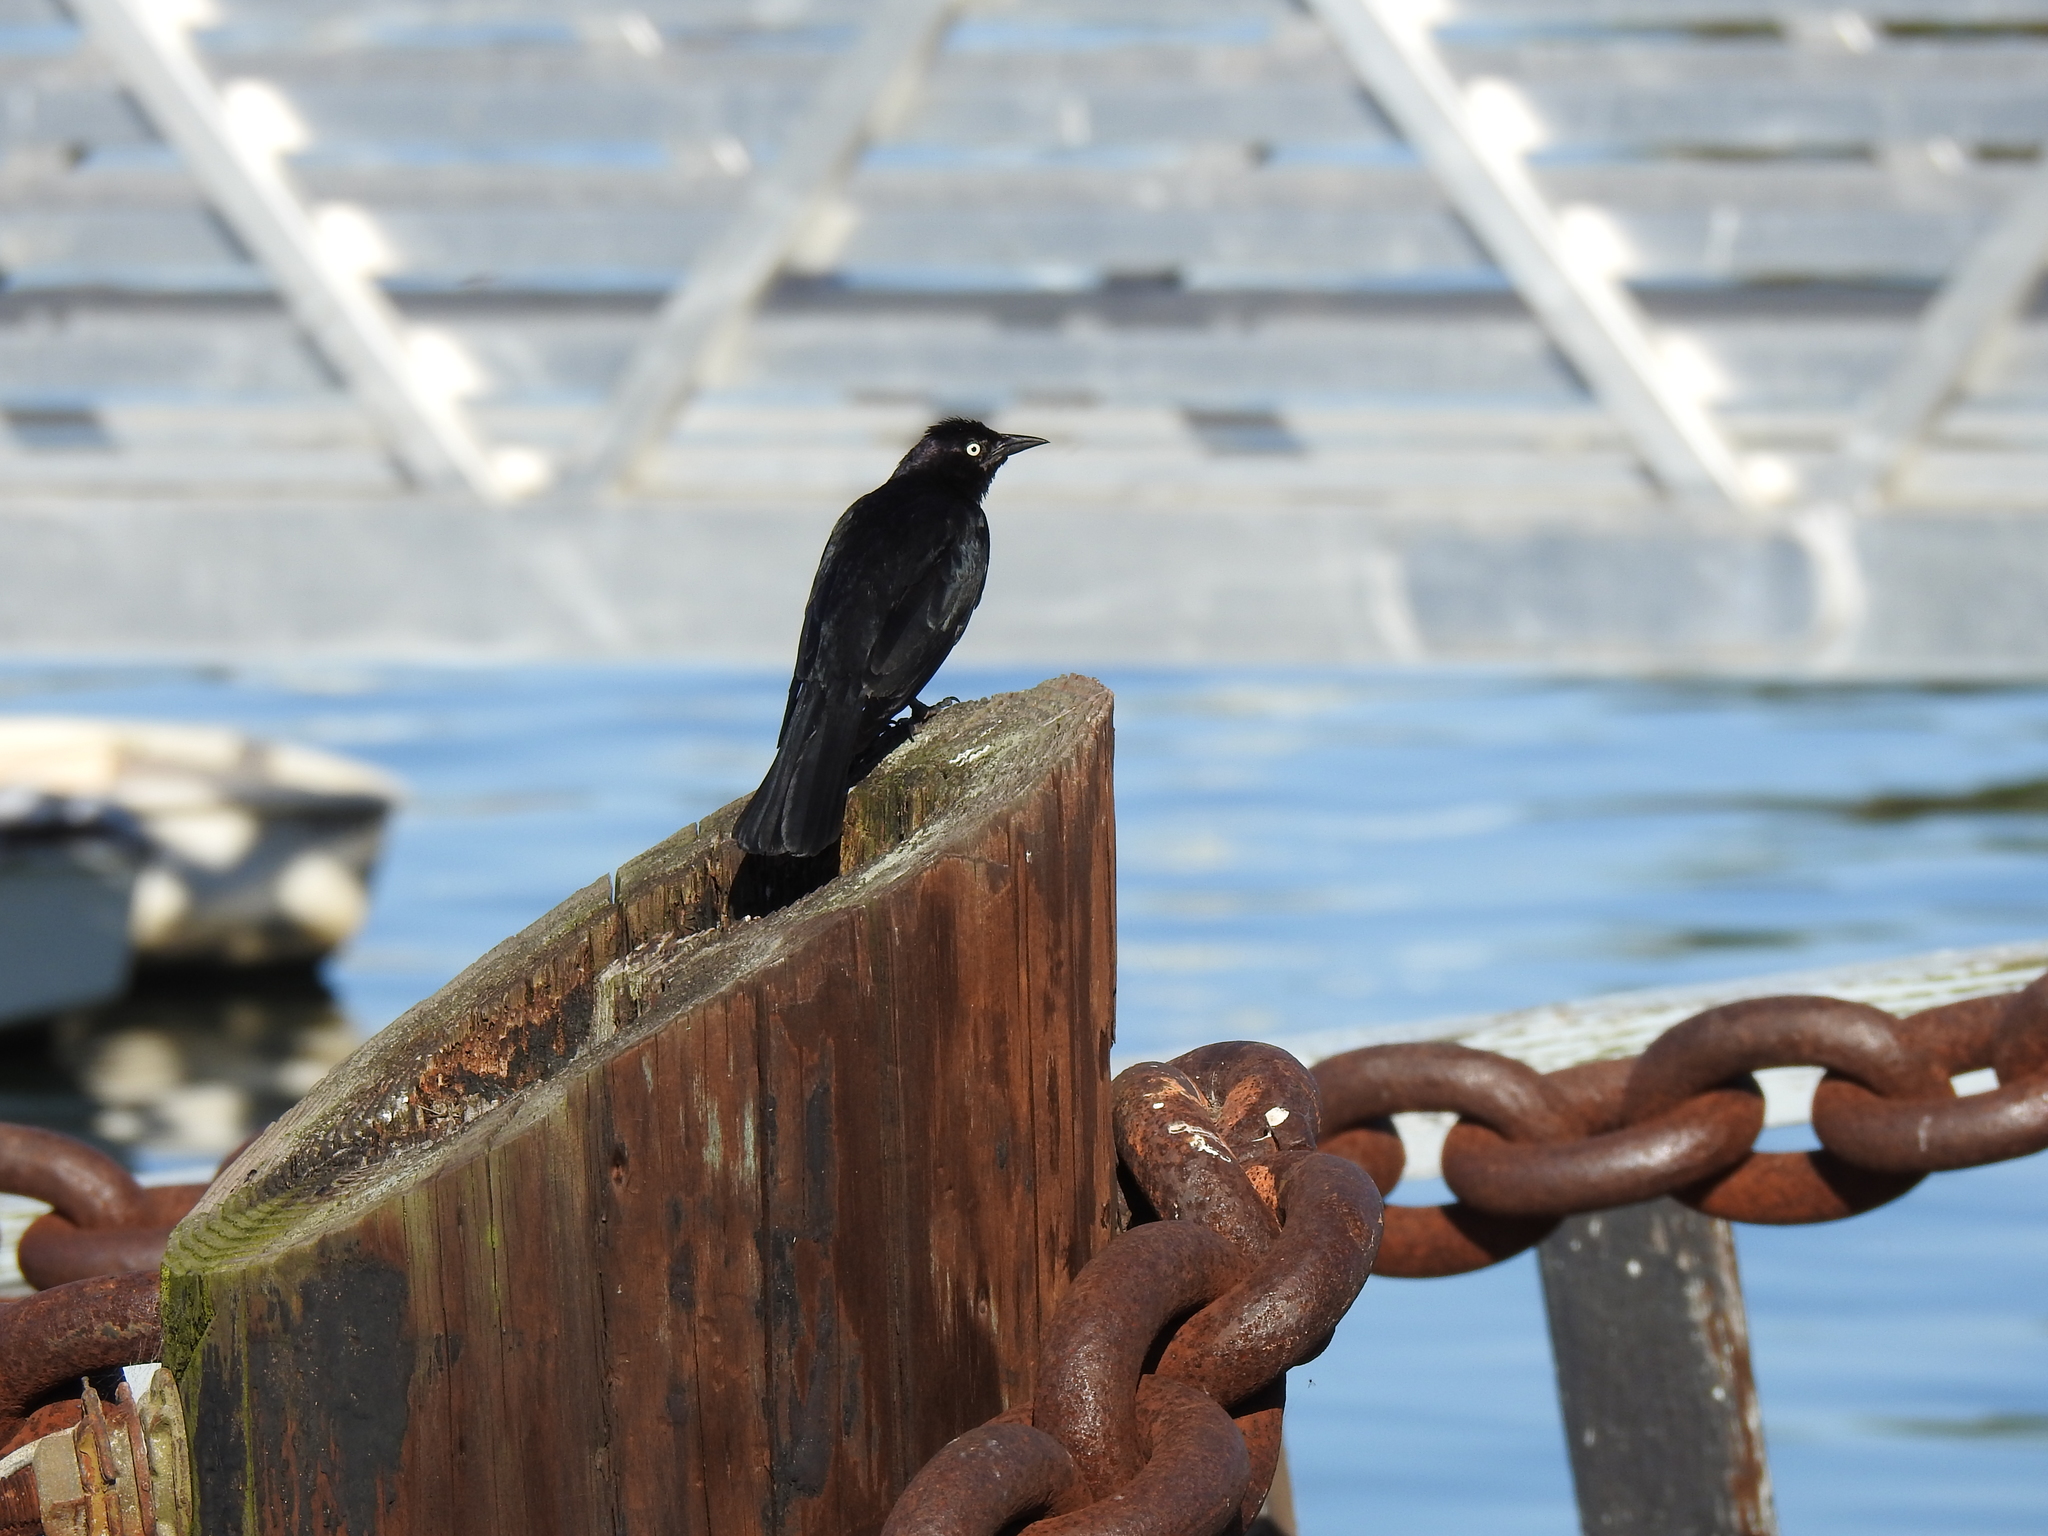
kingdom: Animalia
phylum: Chordata
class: Aves
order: Passeriformes
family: Icteridae
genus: Euphagus
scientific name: Euphagus cyanocephalus
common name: Brewer's blackbird
